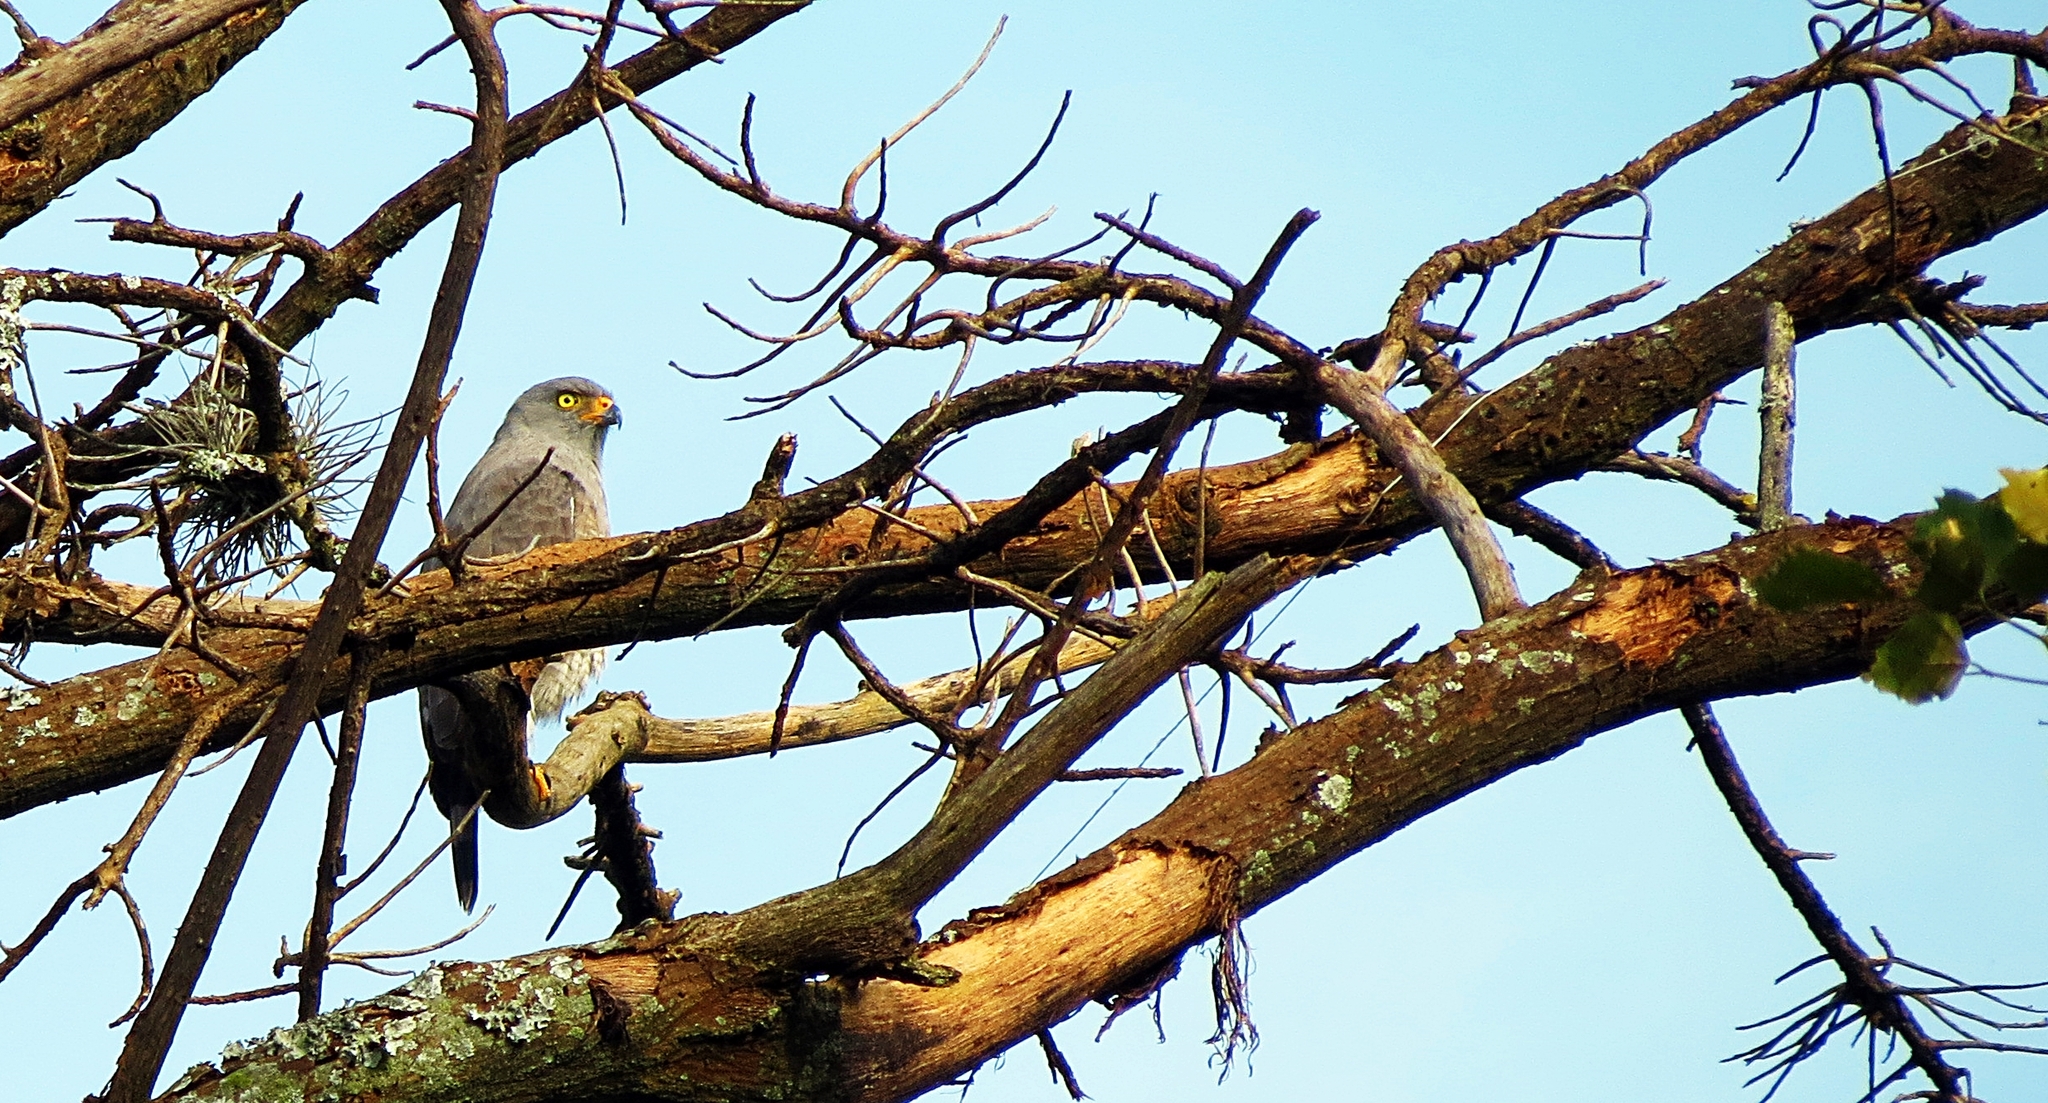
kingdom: Animalia
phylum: Chordata
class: Aves
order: Accipitriformes
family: Accipitridae
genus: Rupornis
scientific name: Rupornis magnirostris
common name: Roadside hawk
